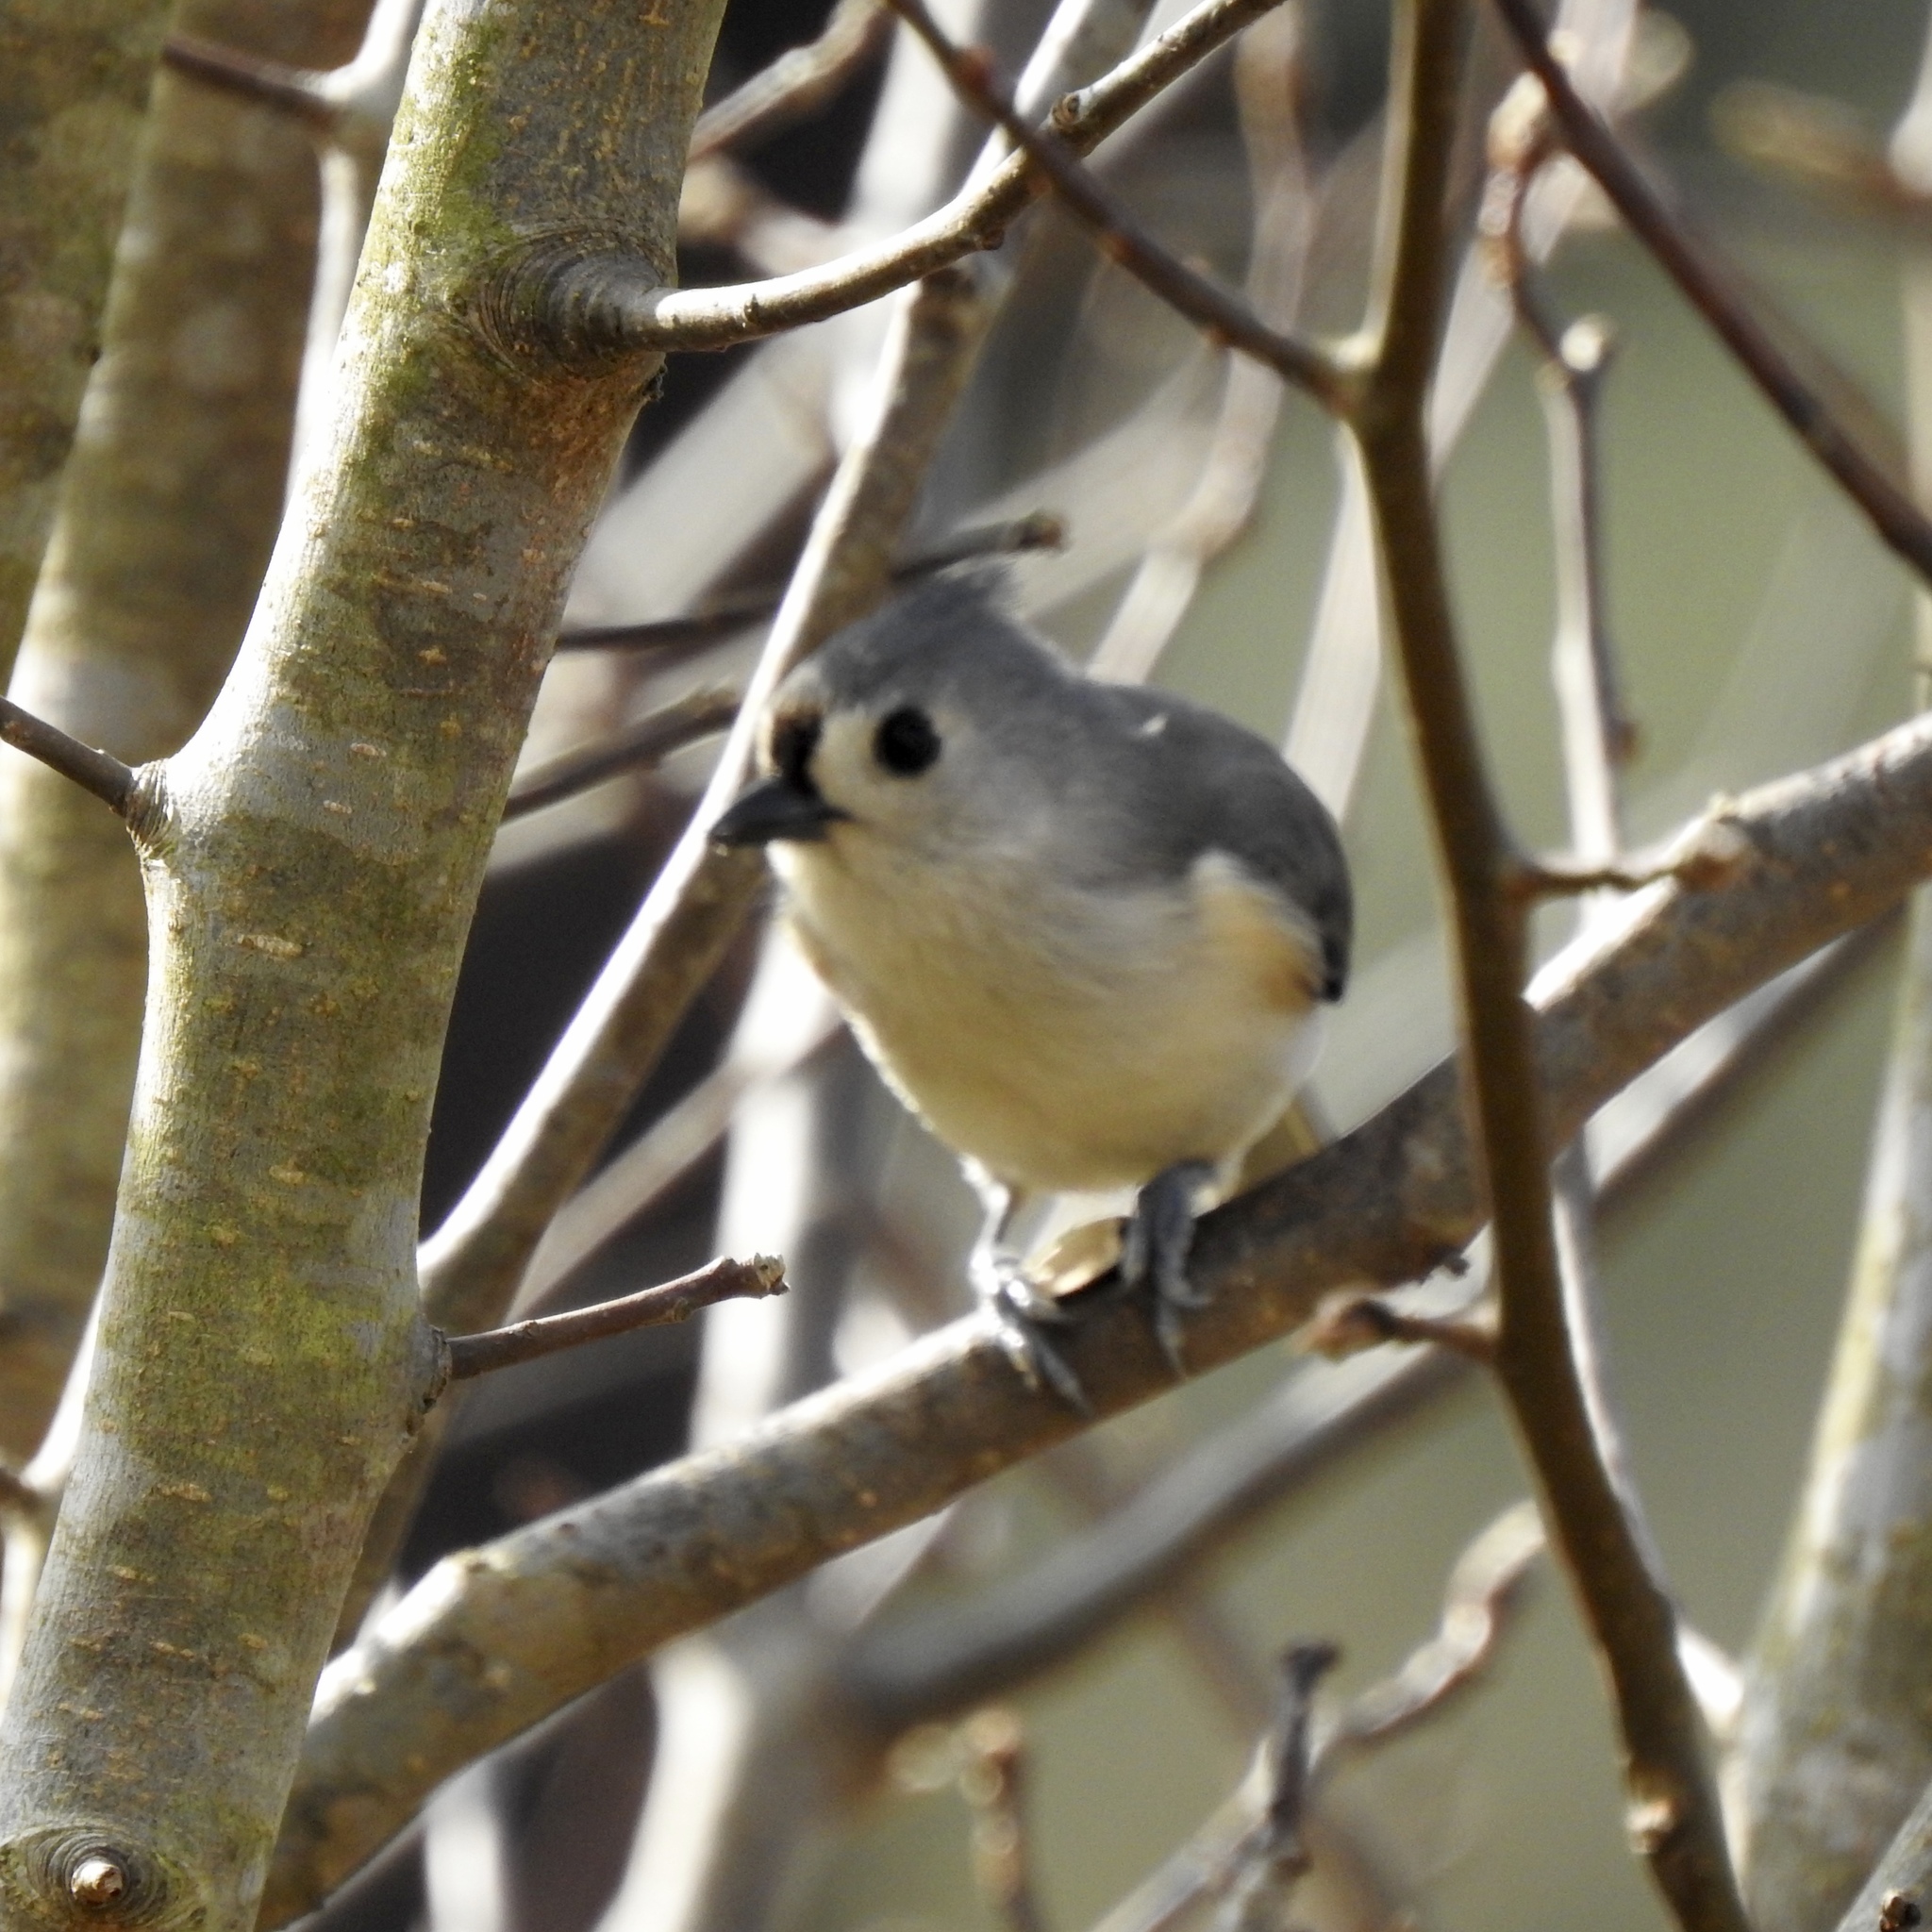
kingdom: Animalia
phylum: Chordata
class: Aves
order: Passeriformes
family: Paridae
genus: Baeolophus
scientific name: Baeolophus bicolor
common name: Tufted titmouse
